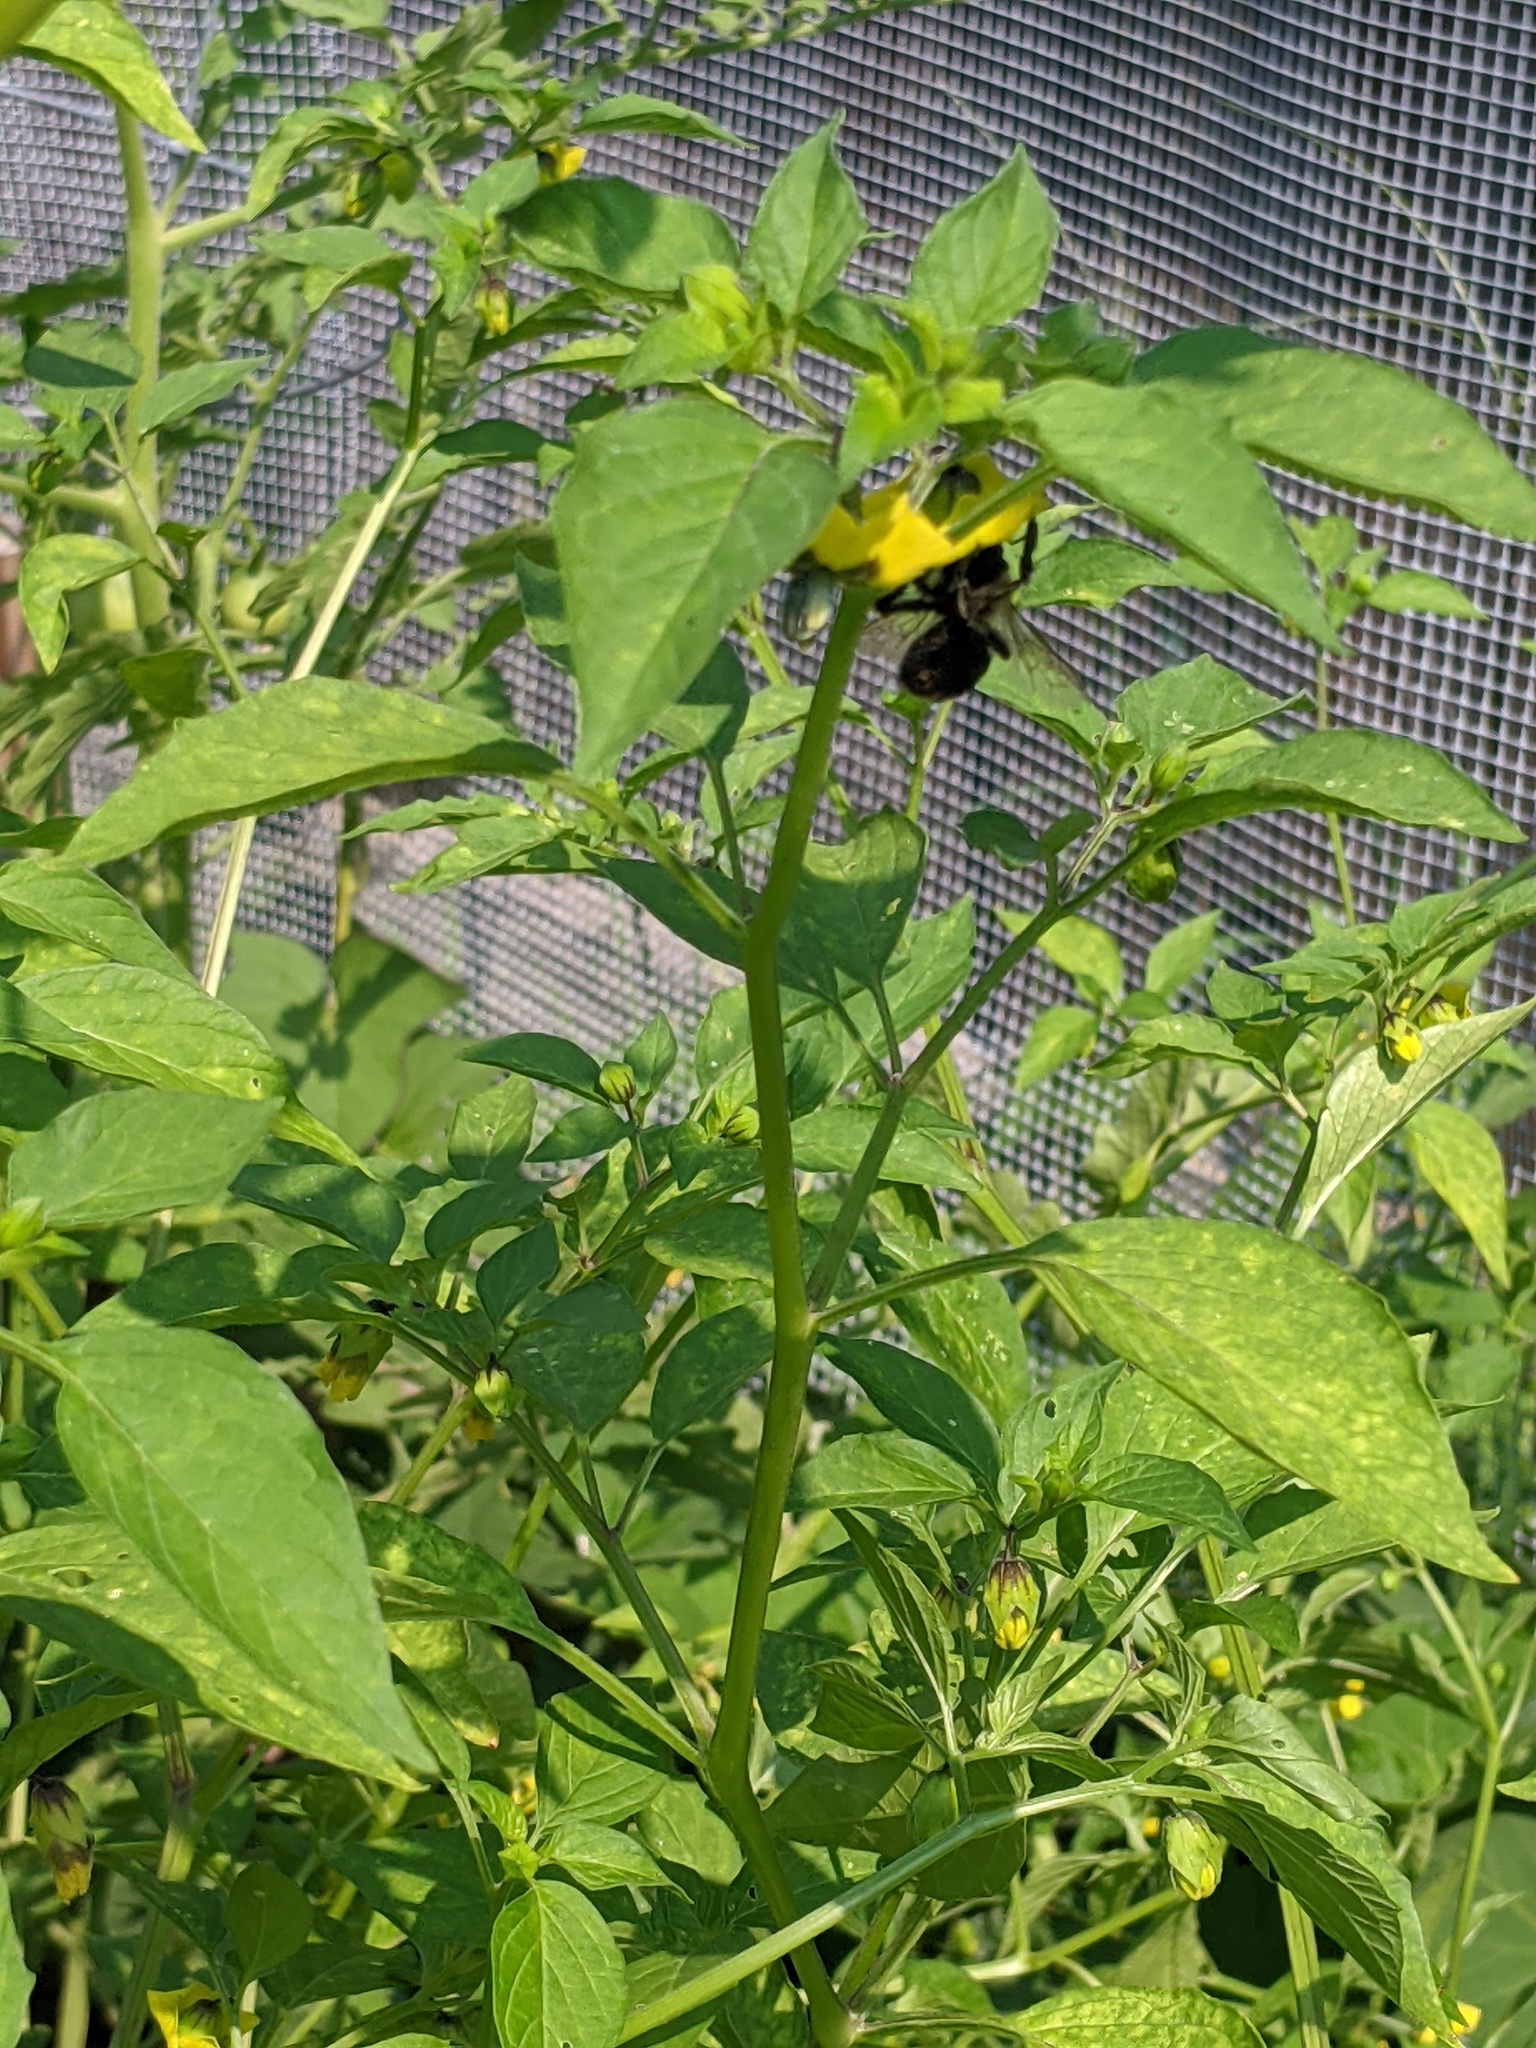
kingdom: Animalia
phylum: Arthropoda
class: Insecta
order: Hymenoptera
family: Apidae
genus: Bombus
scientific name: Bombus impatiens
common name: Common eastern bumble bee
